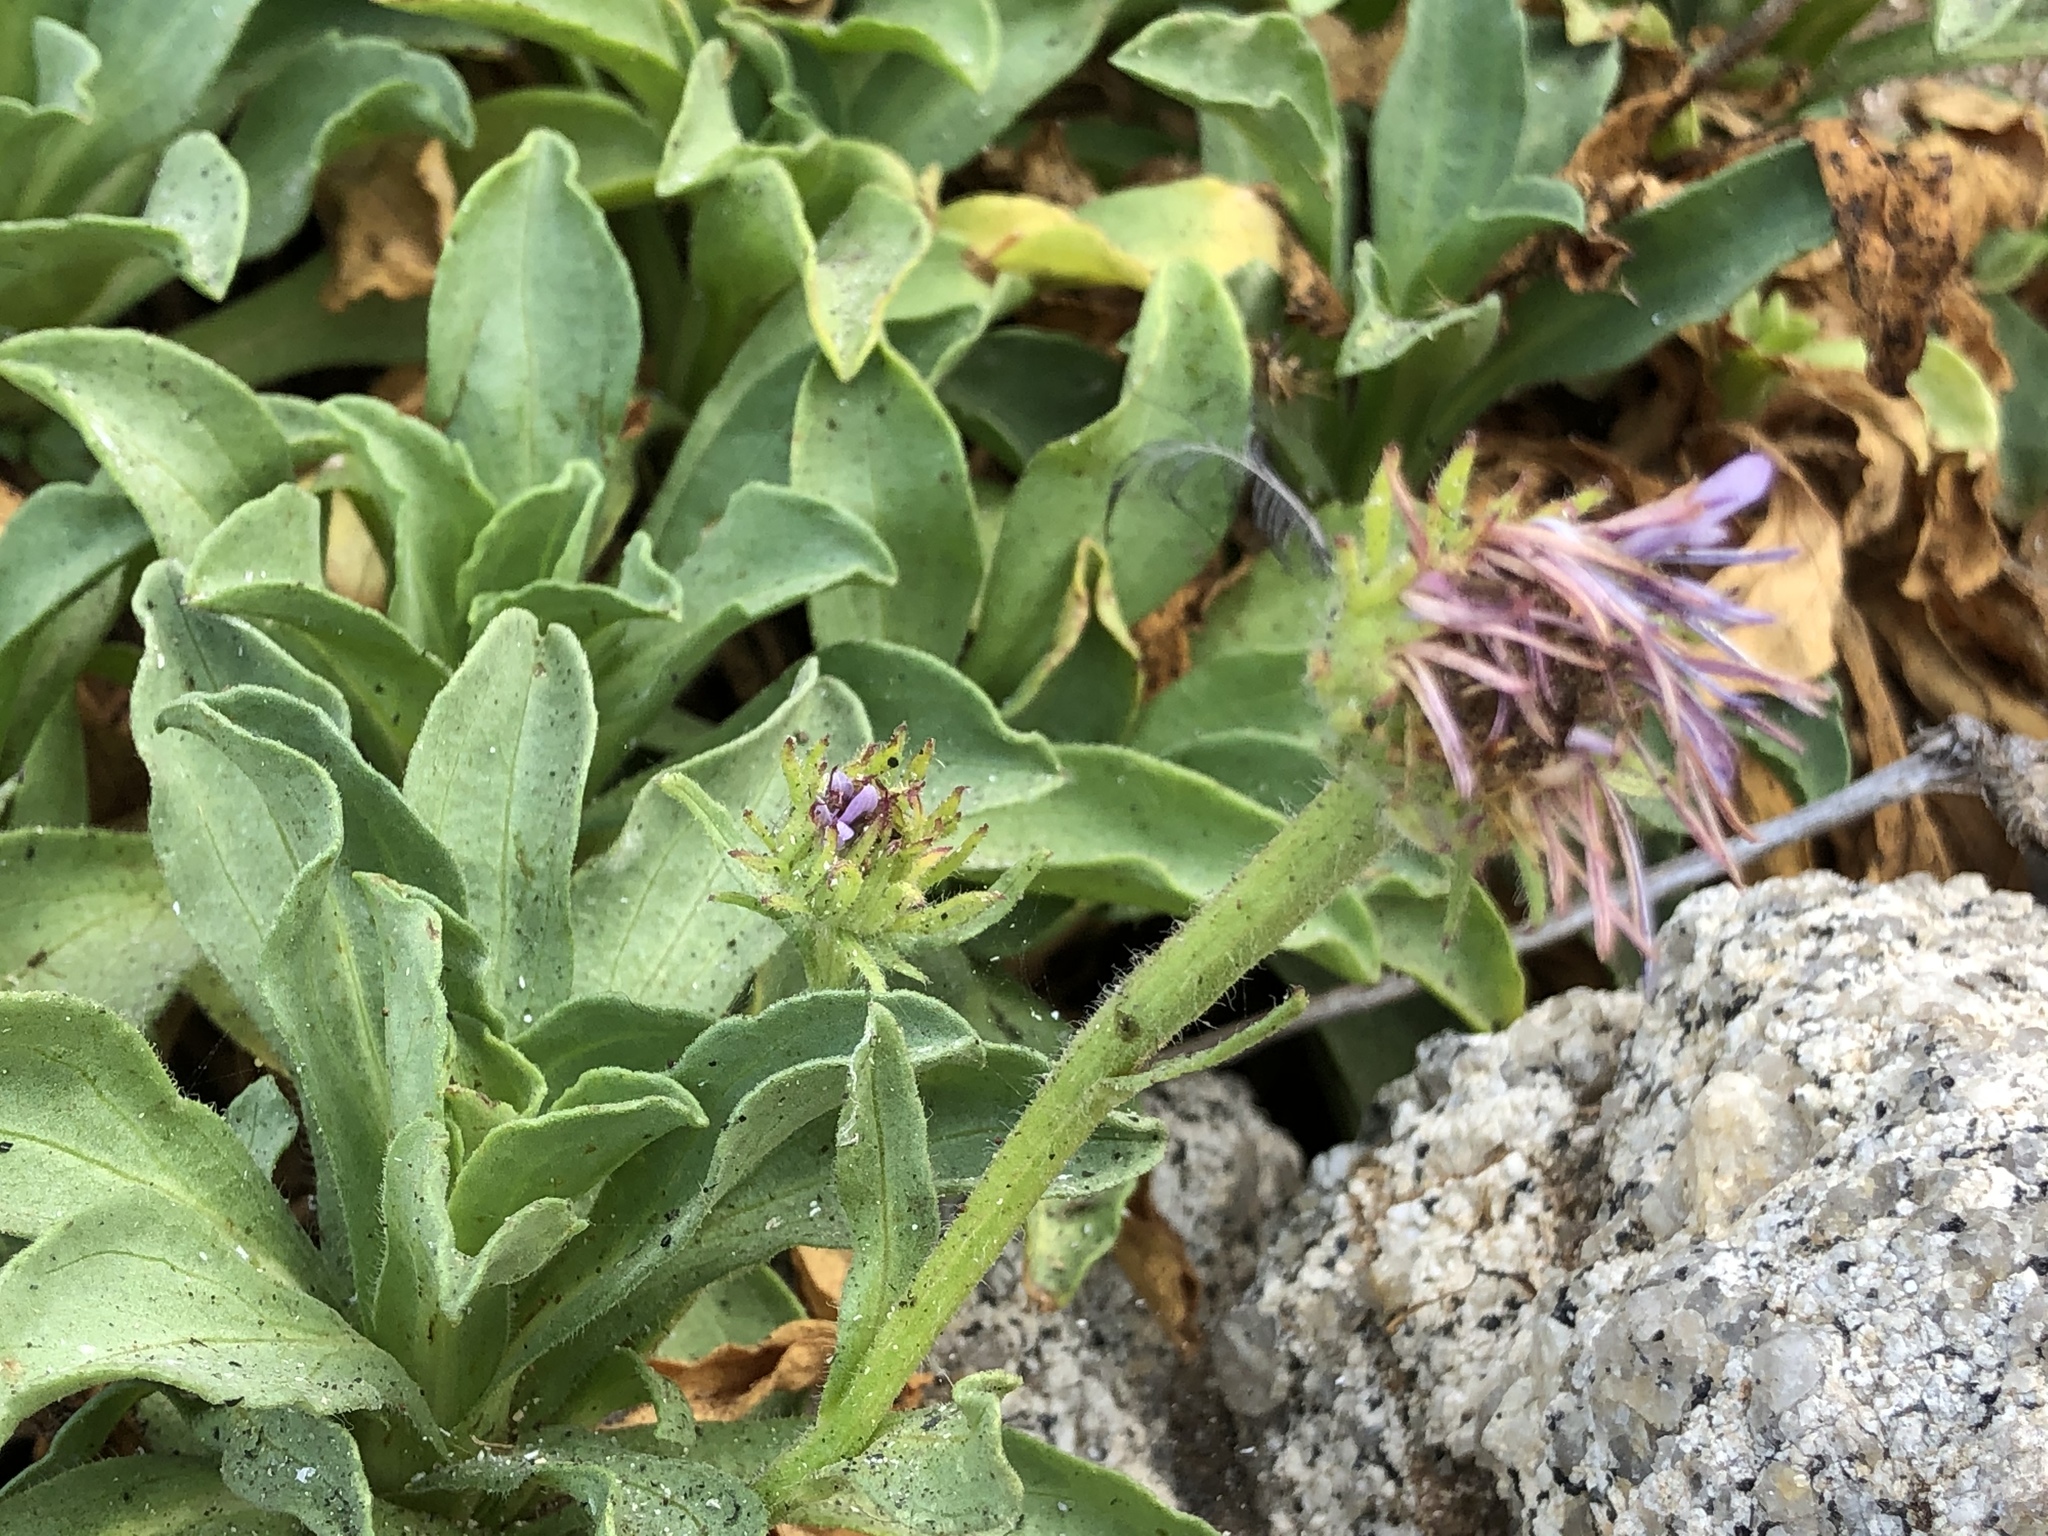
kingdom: Plantae
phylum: Tracheophyta
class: Magnoliopsida
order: Asterales
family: Asteraceae
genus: Erigeron
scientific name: Erigeron glaucus
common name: Seaside daisy
